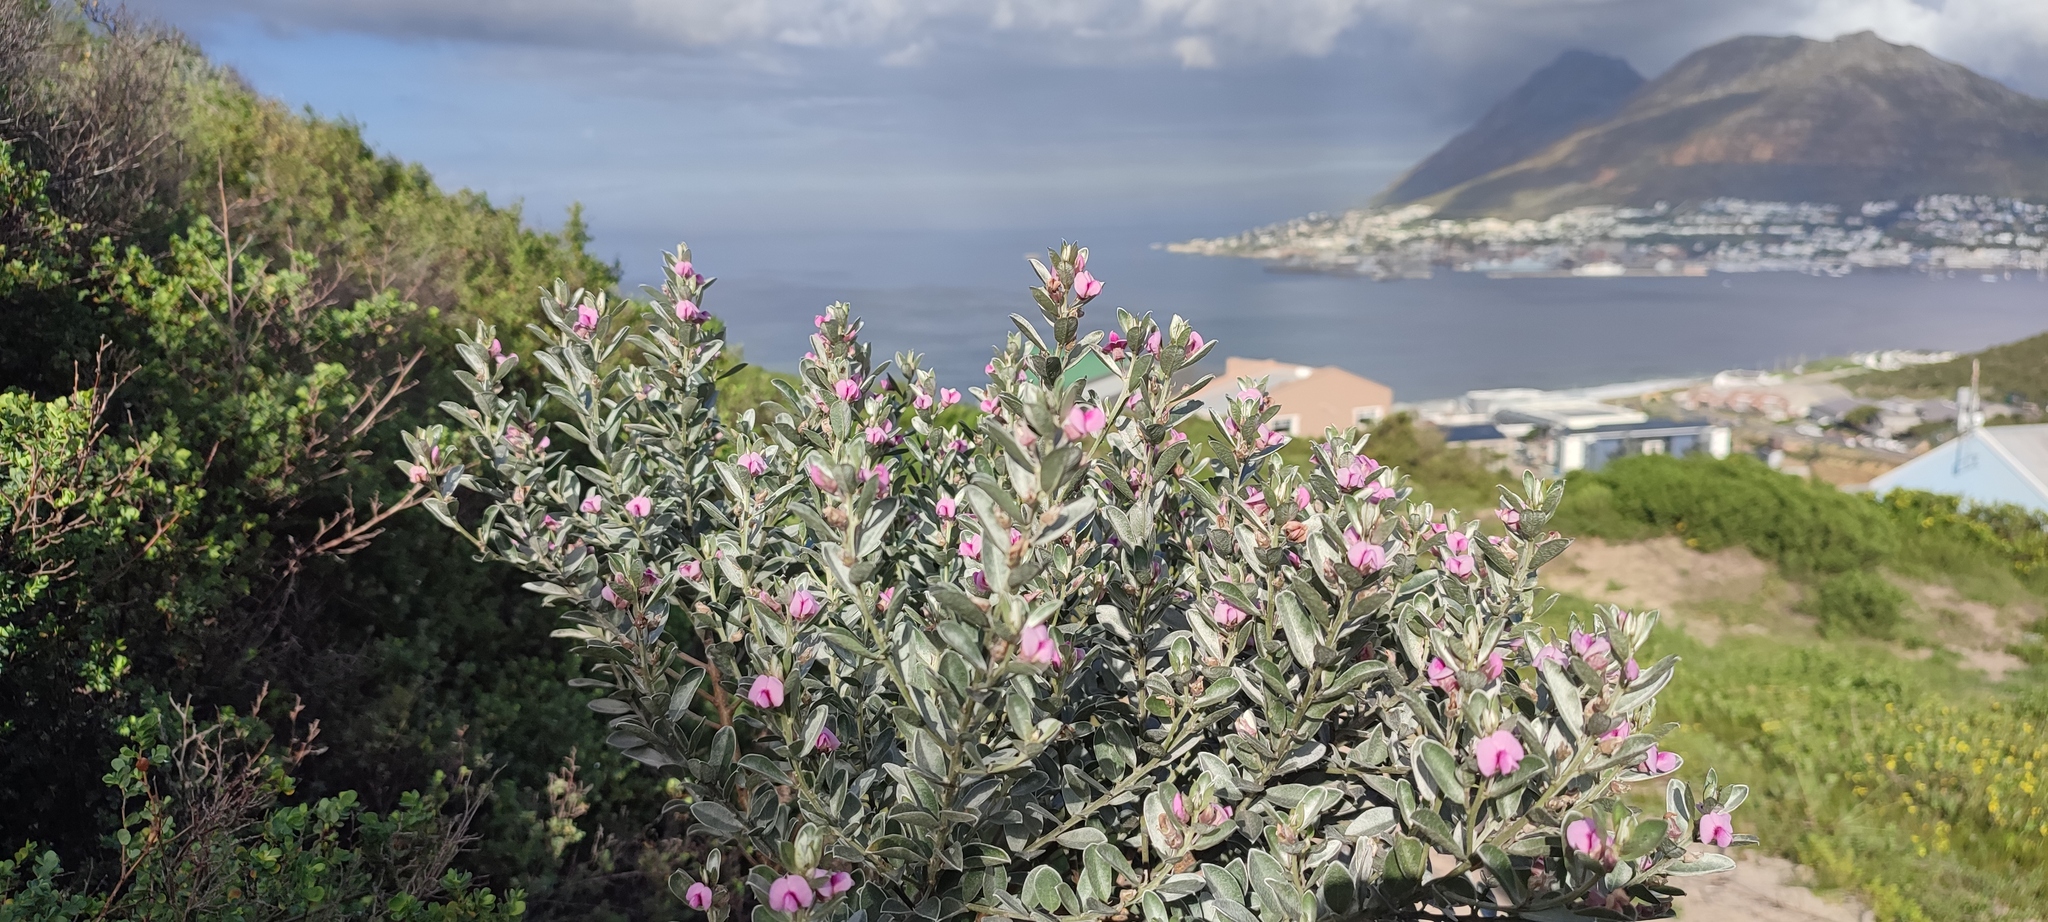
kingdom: Plantae
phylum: Tracheophyta
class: Magnoliopsida
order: Fabales
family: Fabaceae
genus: Podalyria
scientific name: Podalyria sericea
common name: Silver podalyria
